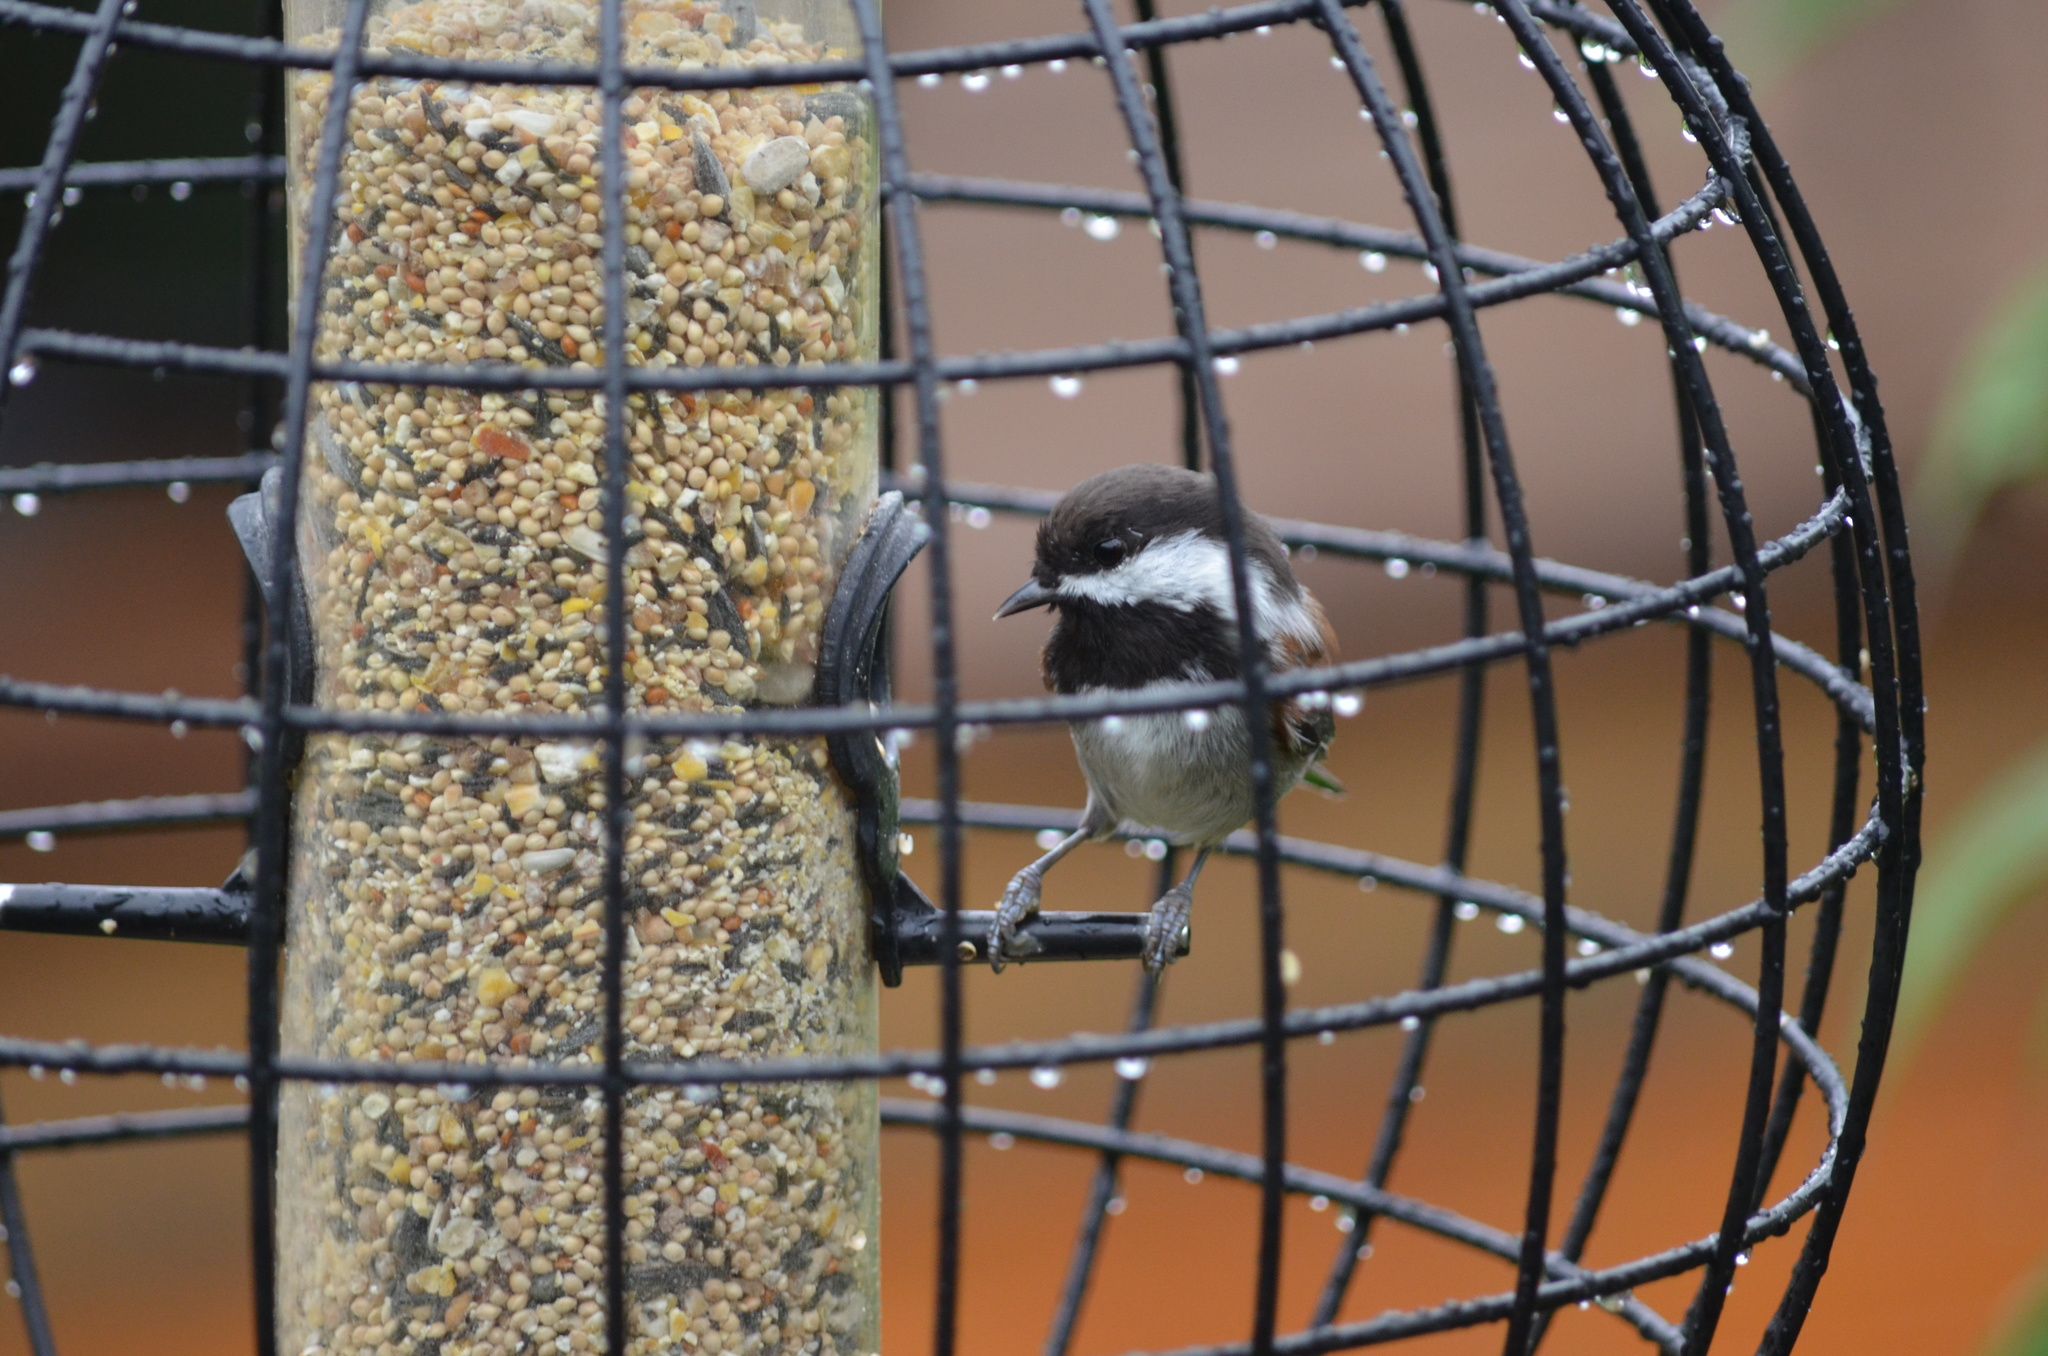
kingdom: Animalia
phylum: Chordata
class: Aves
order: Passeriformes
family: Paridae
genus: Poecile
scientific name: Poecile rufescens
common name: Chestnut-backed chickadee
